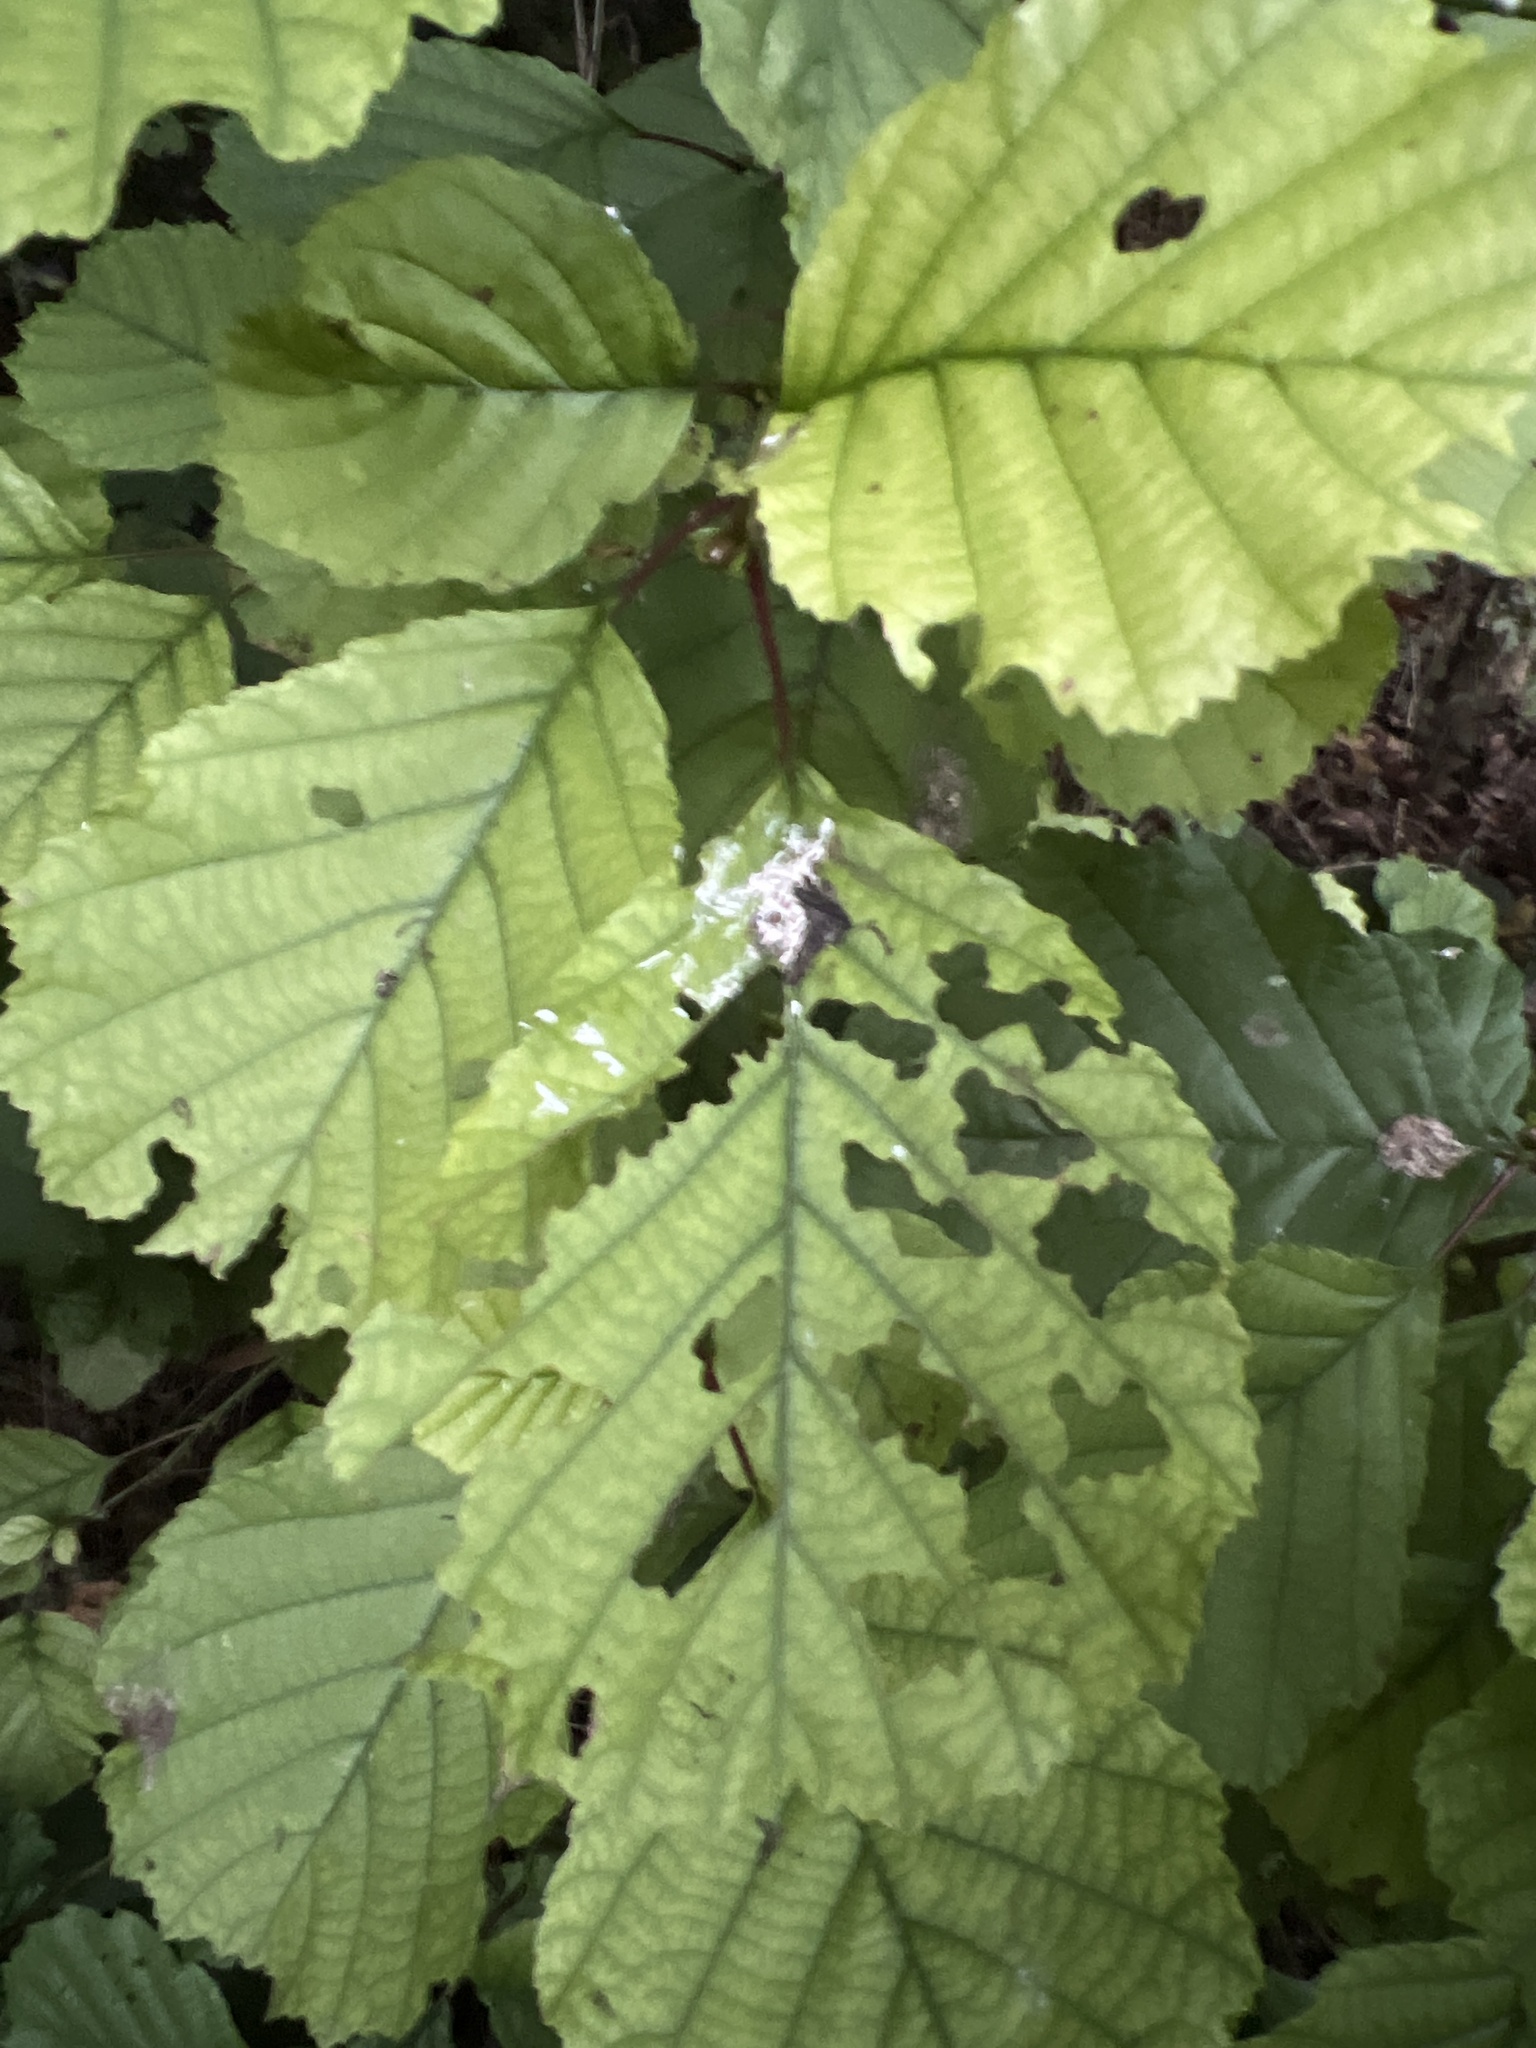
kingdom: Plantae
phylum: Tracheophyta
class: Magnoliopsida
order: Fagales
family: Betulaceae
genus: Alnus
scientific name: Alnus glutinosa
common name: Black alder
